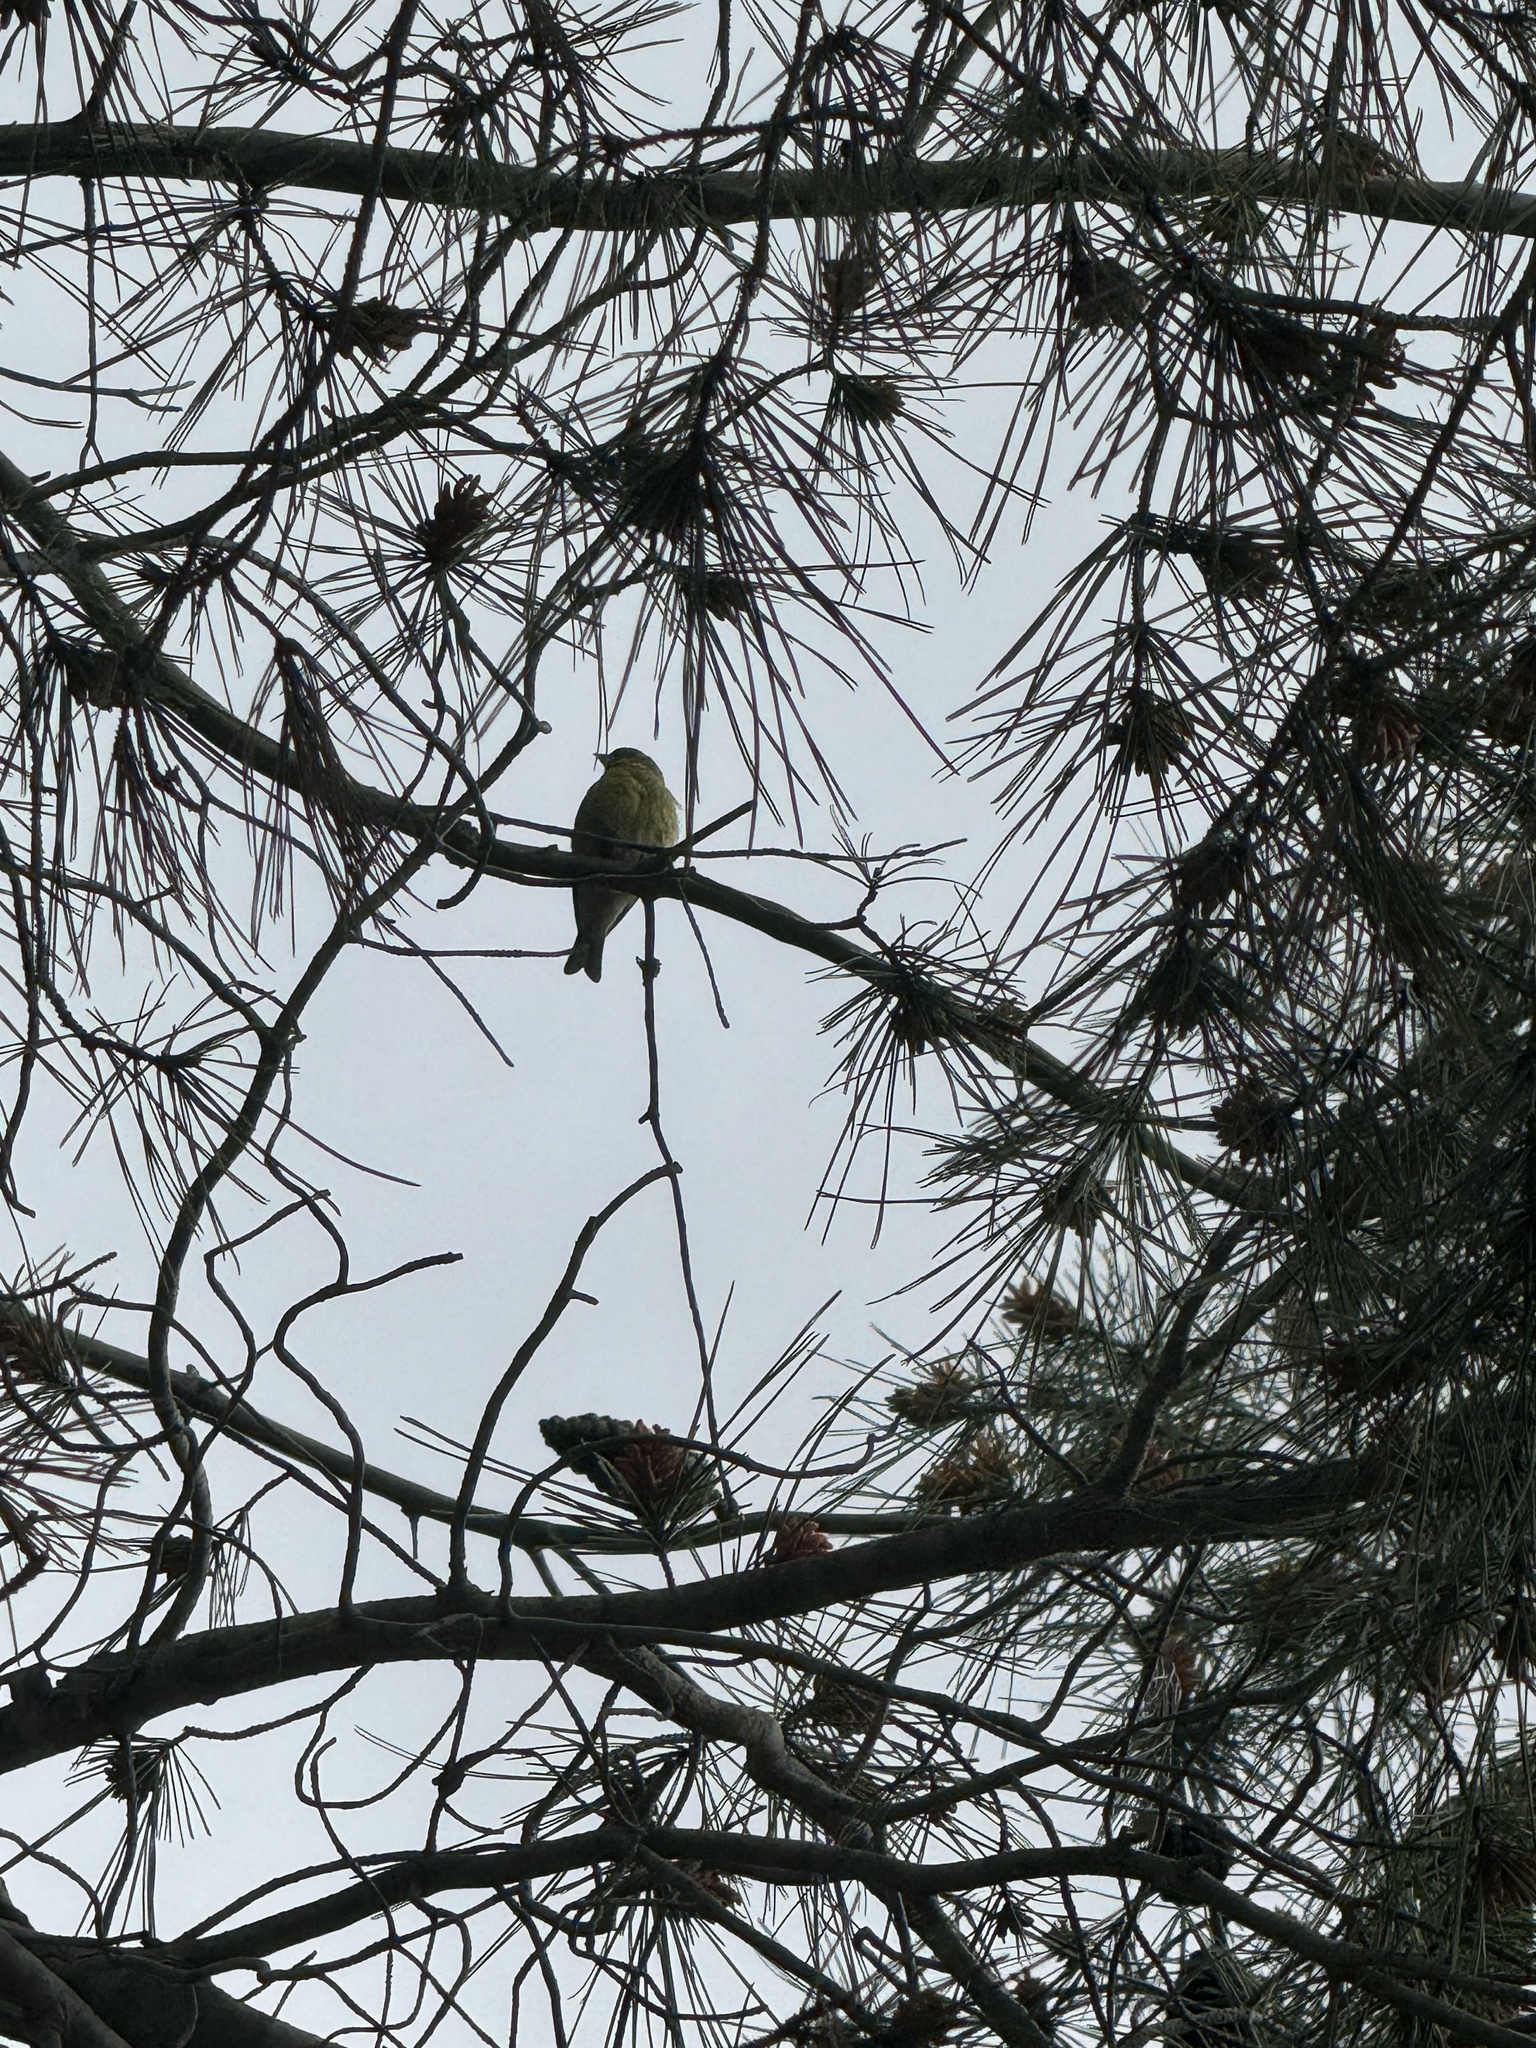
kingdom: Animalia
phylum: Chordata
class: Aves
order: Passeriformes
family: Fringillidae
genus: Spinus
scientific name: Spinus psaltria
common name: Lesser goldfinch
